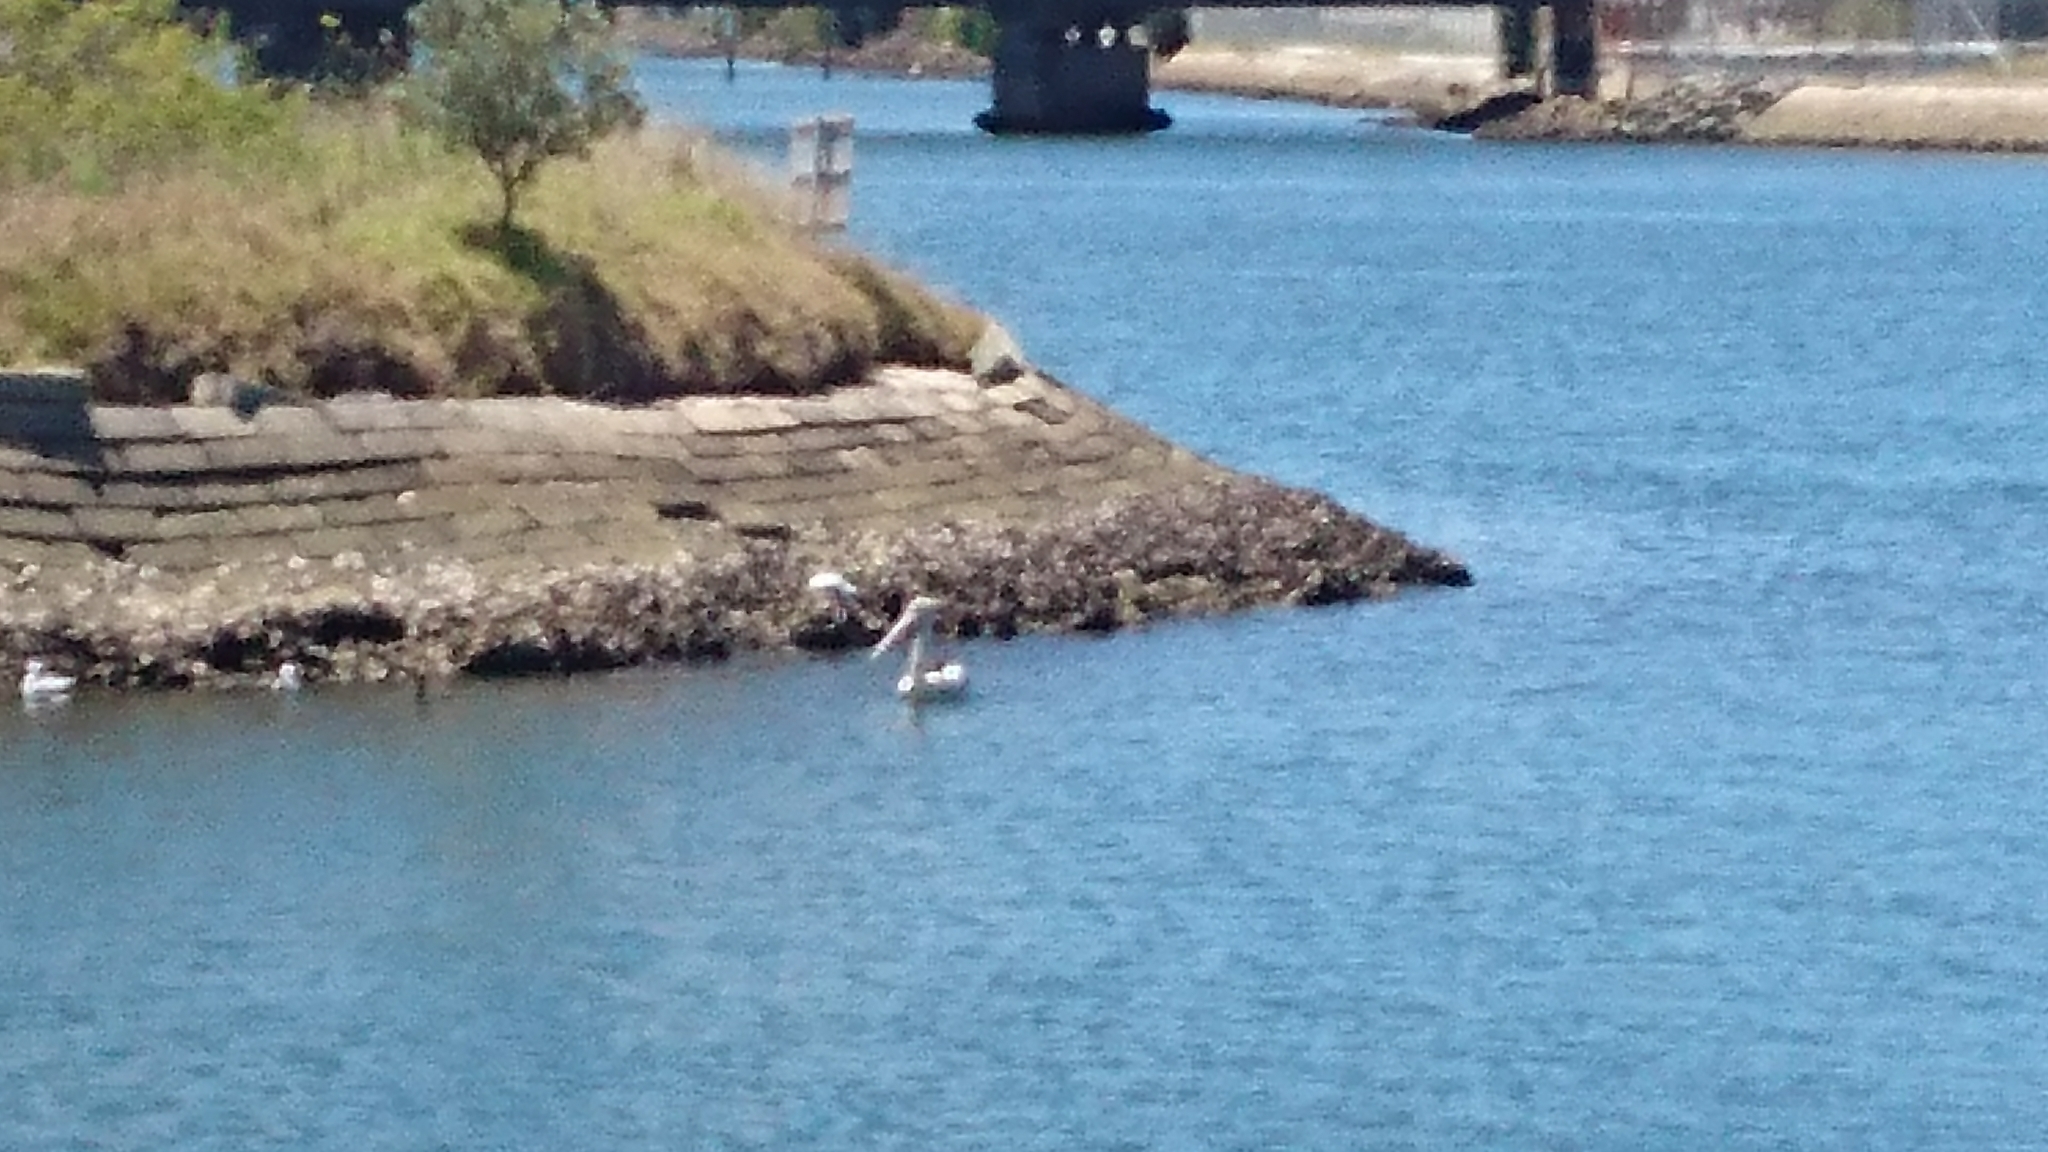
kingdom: Animalia
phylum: Chordata
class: Aves
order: Pelecaniformes
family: Pelecanidae
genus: Pelecanus
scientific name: Pelecanus conspicillatus
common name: Australian pelican
